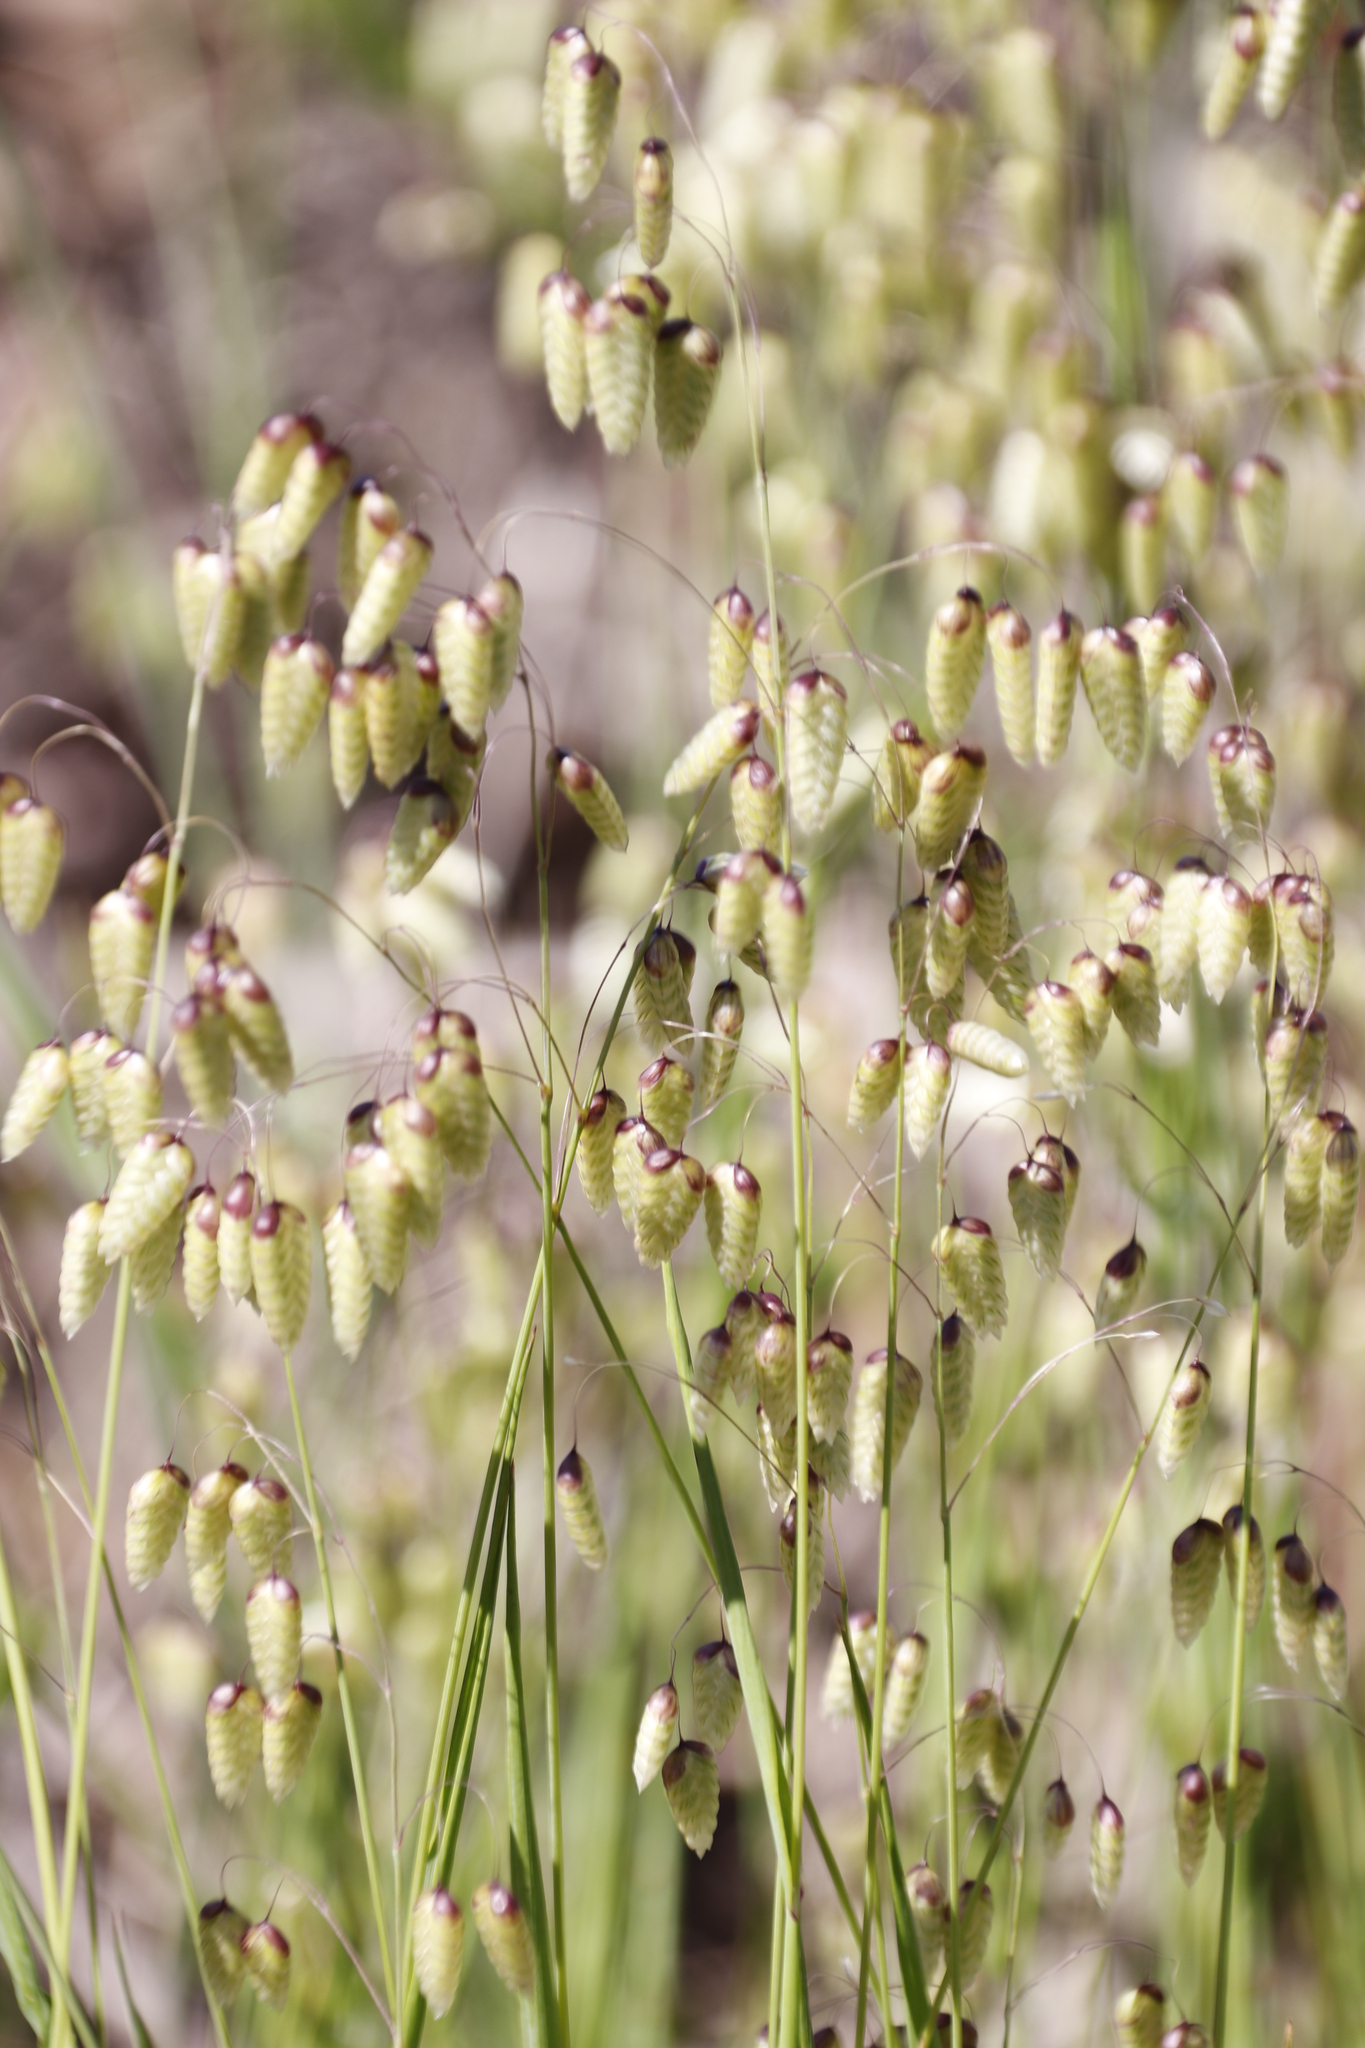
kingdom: Plantae
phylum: Tracheophyta
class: Liliopsida
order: Poales
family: Poaceae
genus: Briza
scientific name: Briza maxima
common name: Big quakinggrass
